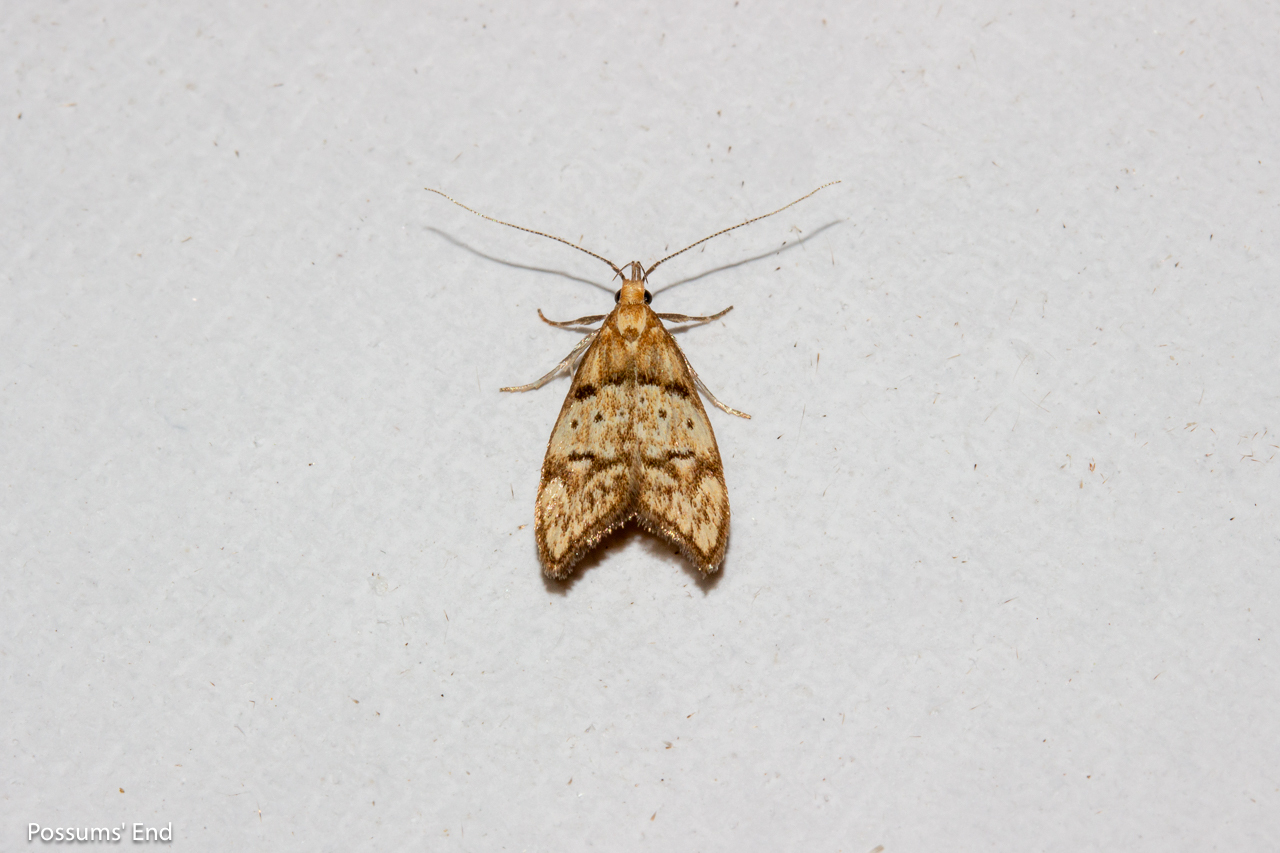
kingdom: Animalia
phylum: Arthropoda
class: Insecta
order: Lepidoptera
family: Oecophoridae
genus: Gymnobathra
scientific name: Gymnobathra hamatella
